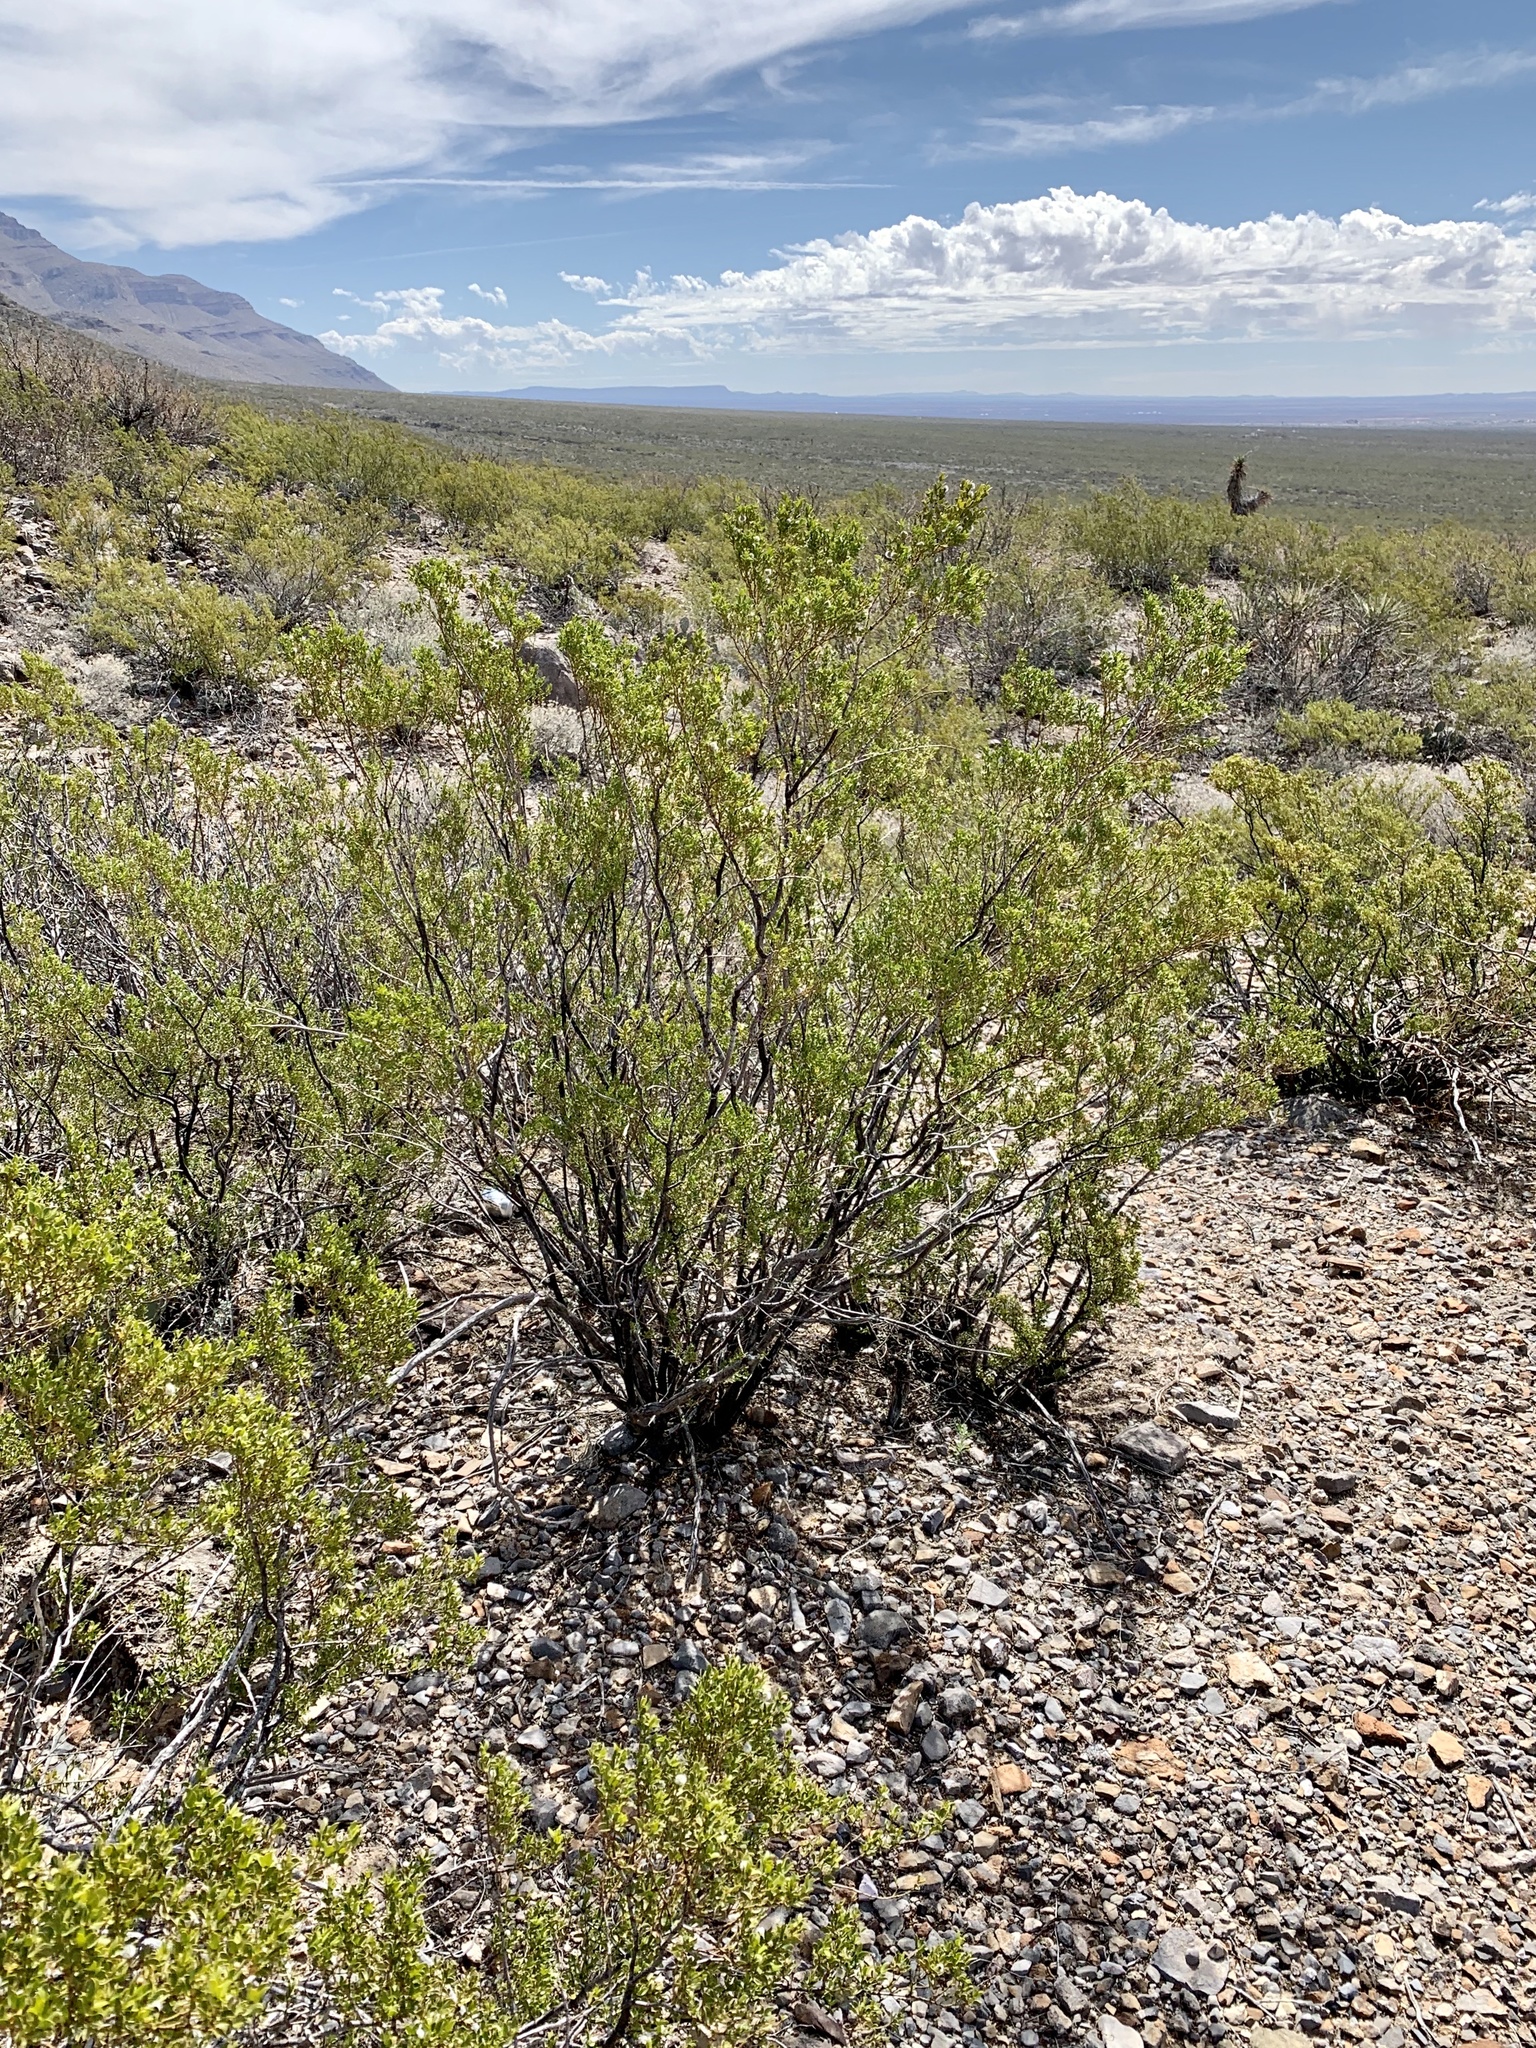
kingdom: Plantae
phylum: Tracheophyta
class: Magnoliopsida
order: Zygophyllales
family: Zygophyllaceae
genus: Larrea
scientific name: Larrea tridentata
